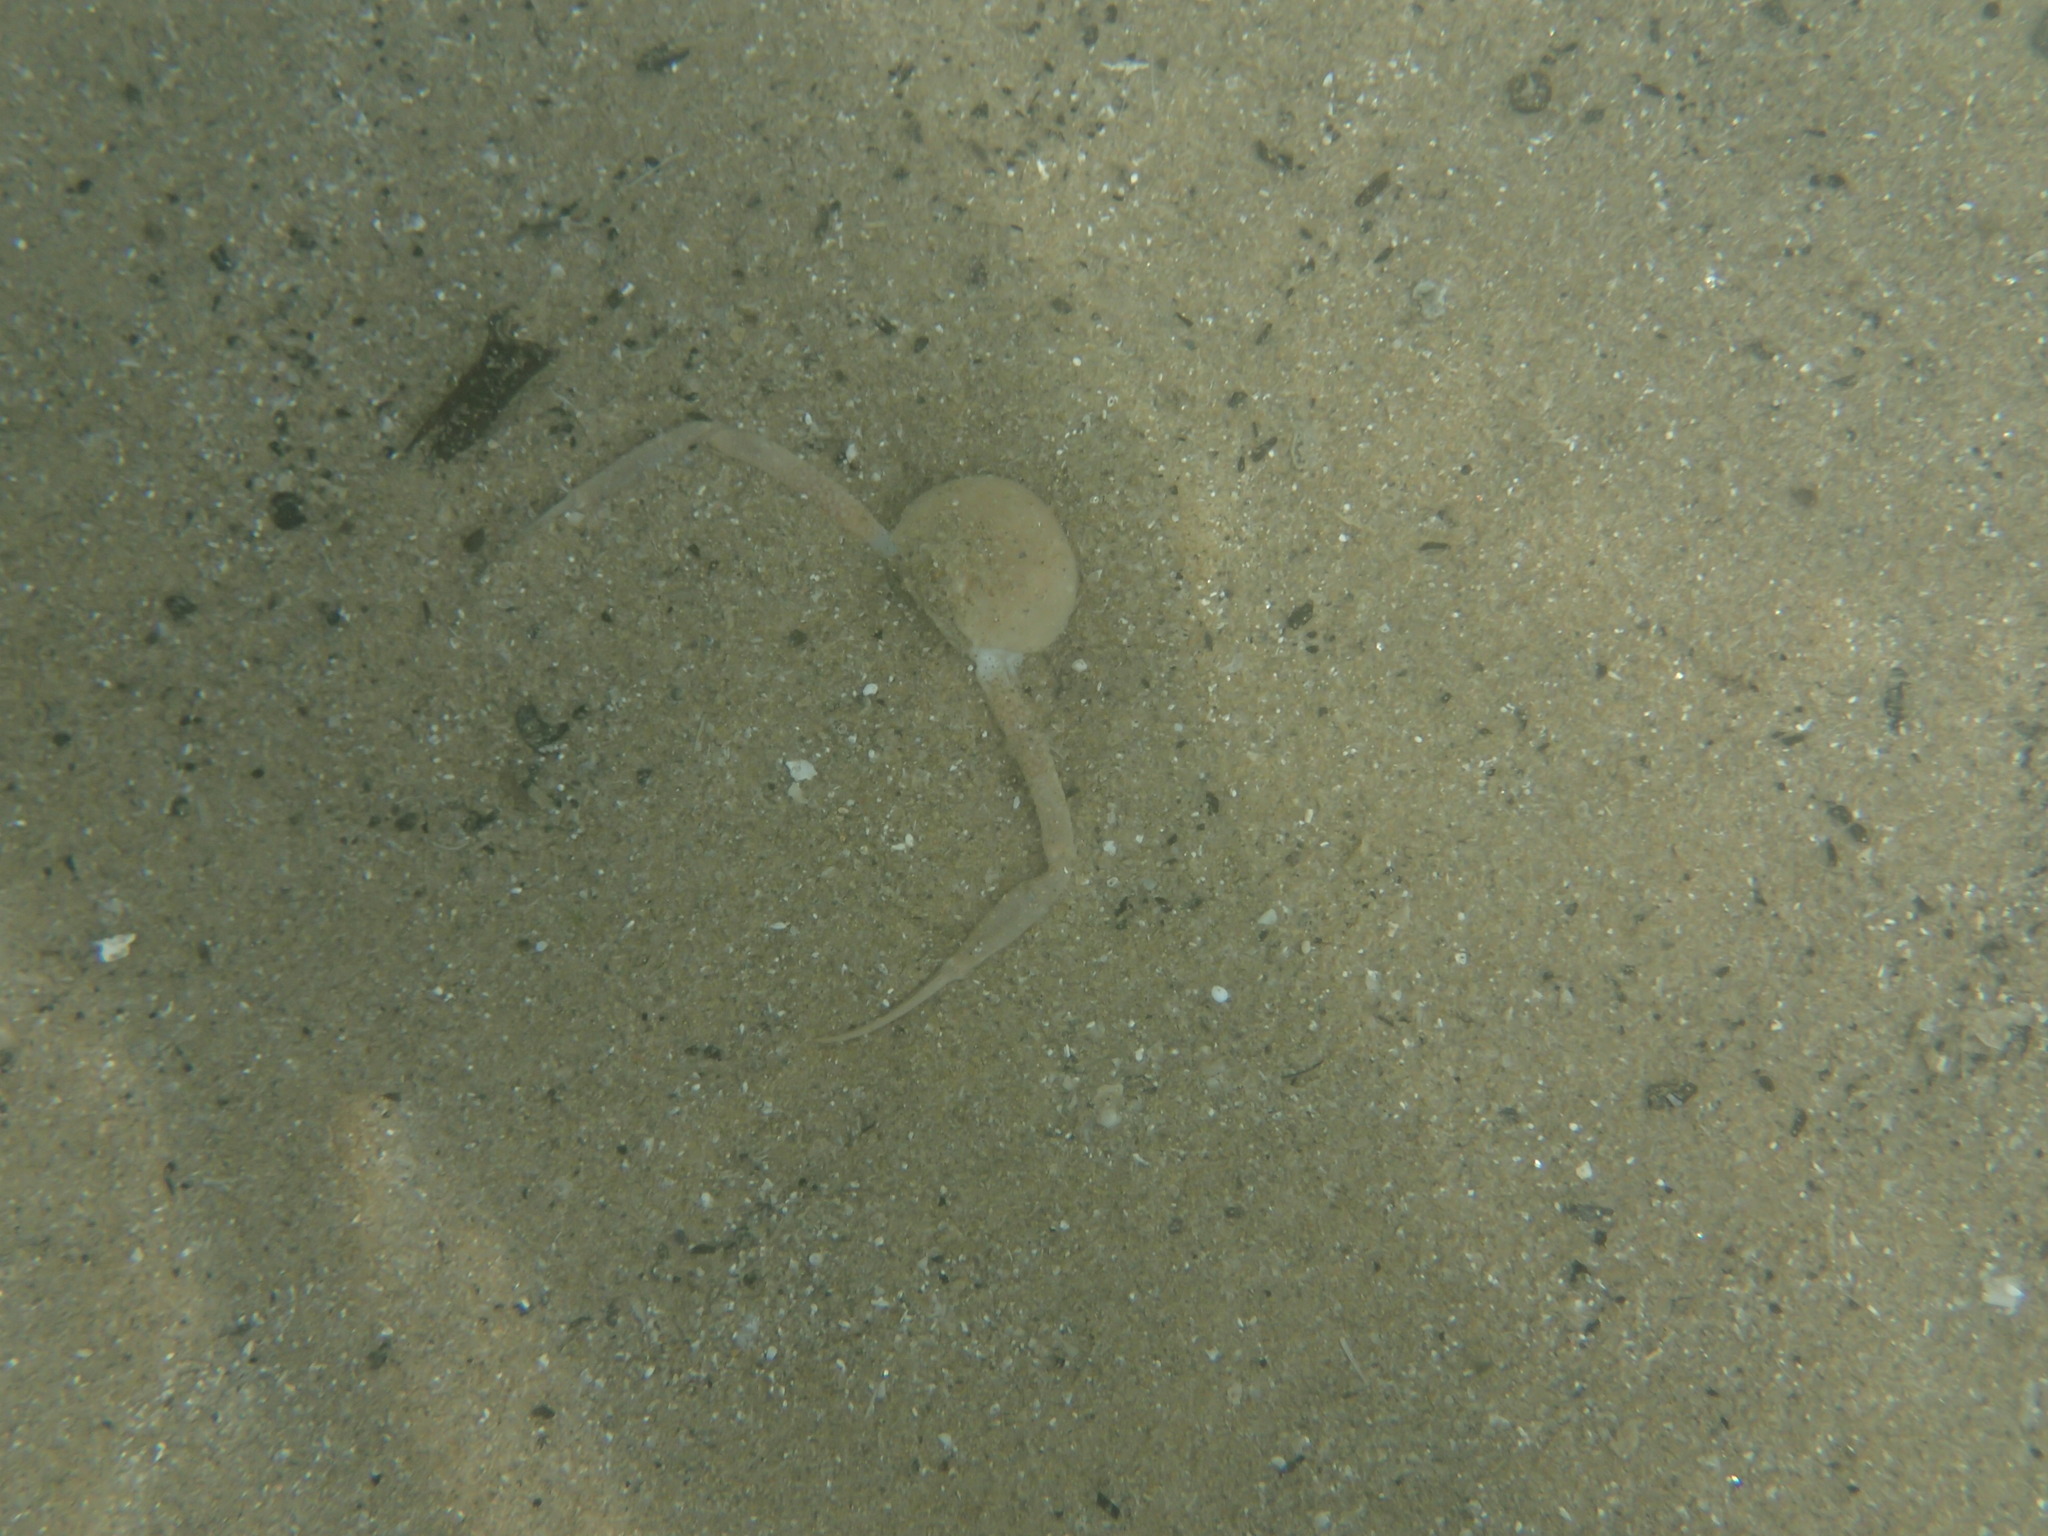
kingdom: Animalia
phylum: Arthropoda
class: Malacostraca
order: Decapoda
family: Leucosiidae
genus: Ilia
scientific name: Ilia nucleus
